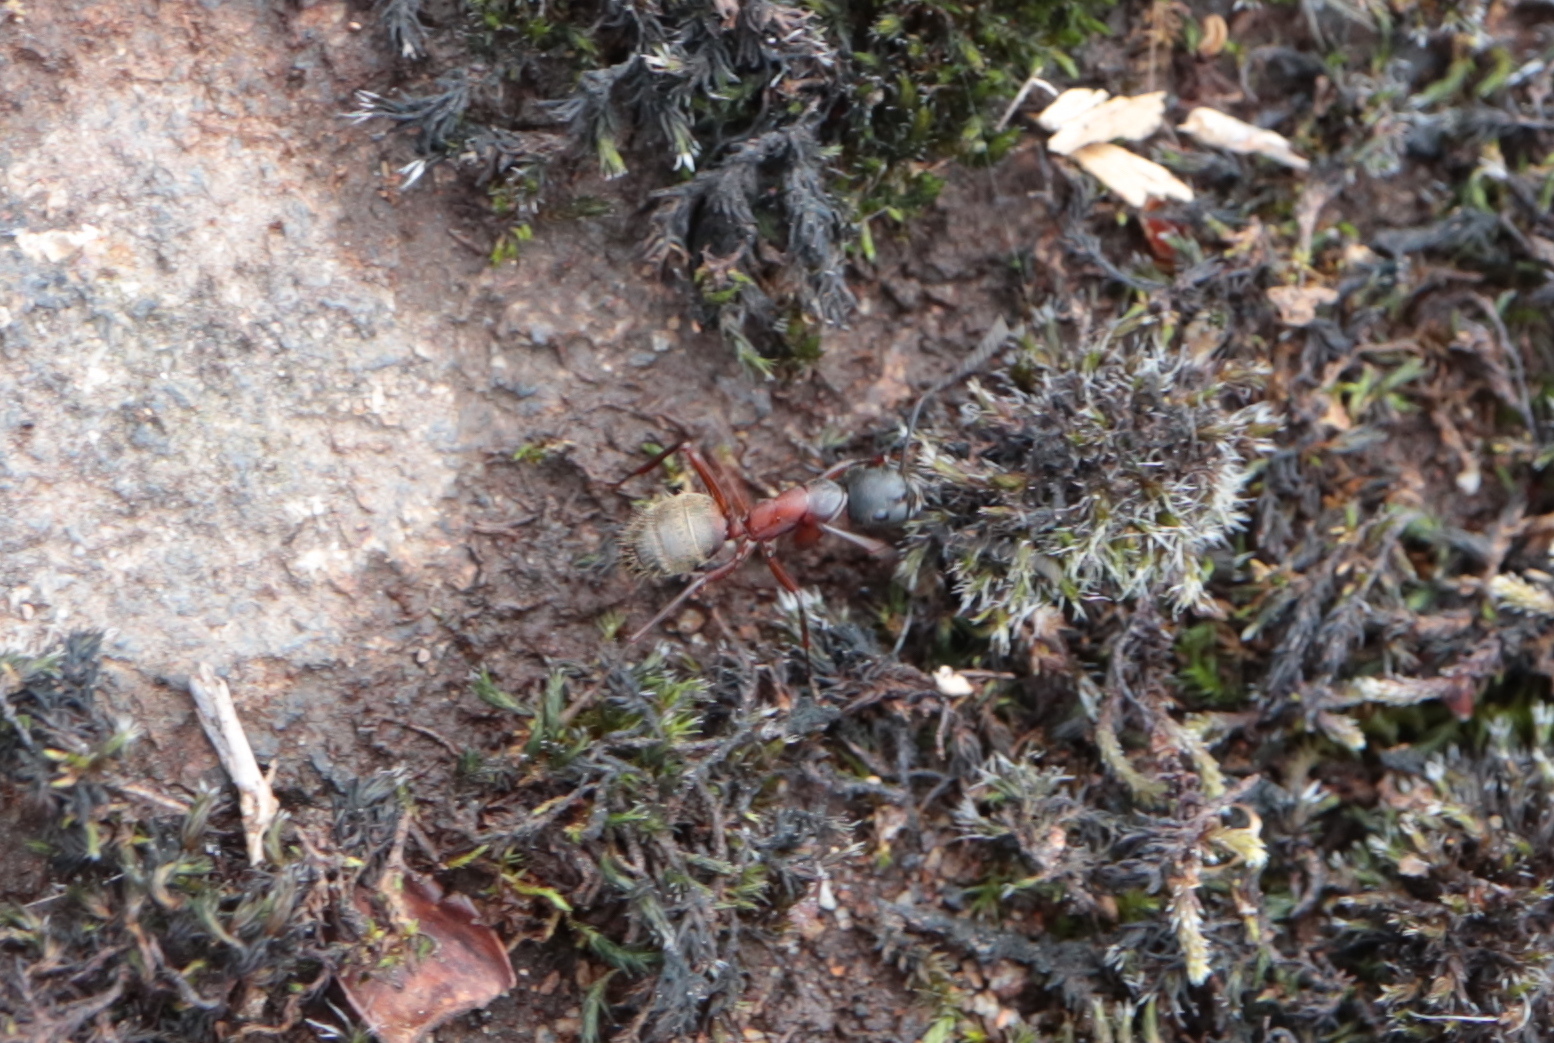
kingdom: Animalia
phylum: Arthropoda
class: Insecta
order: Hymenoptera
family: Formicidae
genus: Camponotus
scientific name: Camponotus chromaiodes
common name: Red carpenter ant
